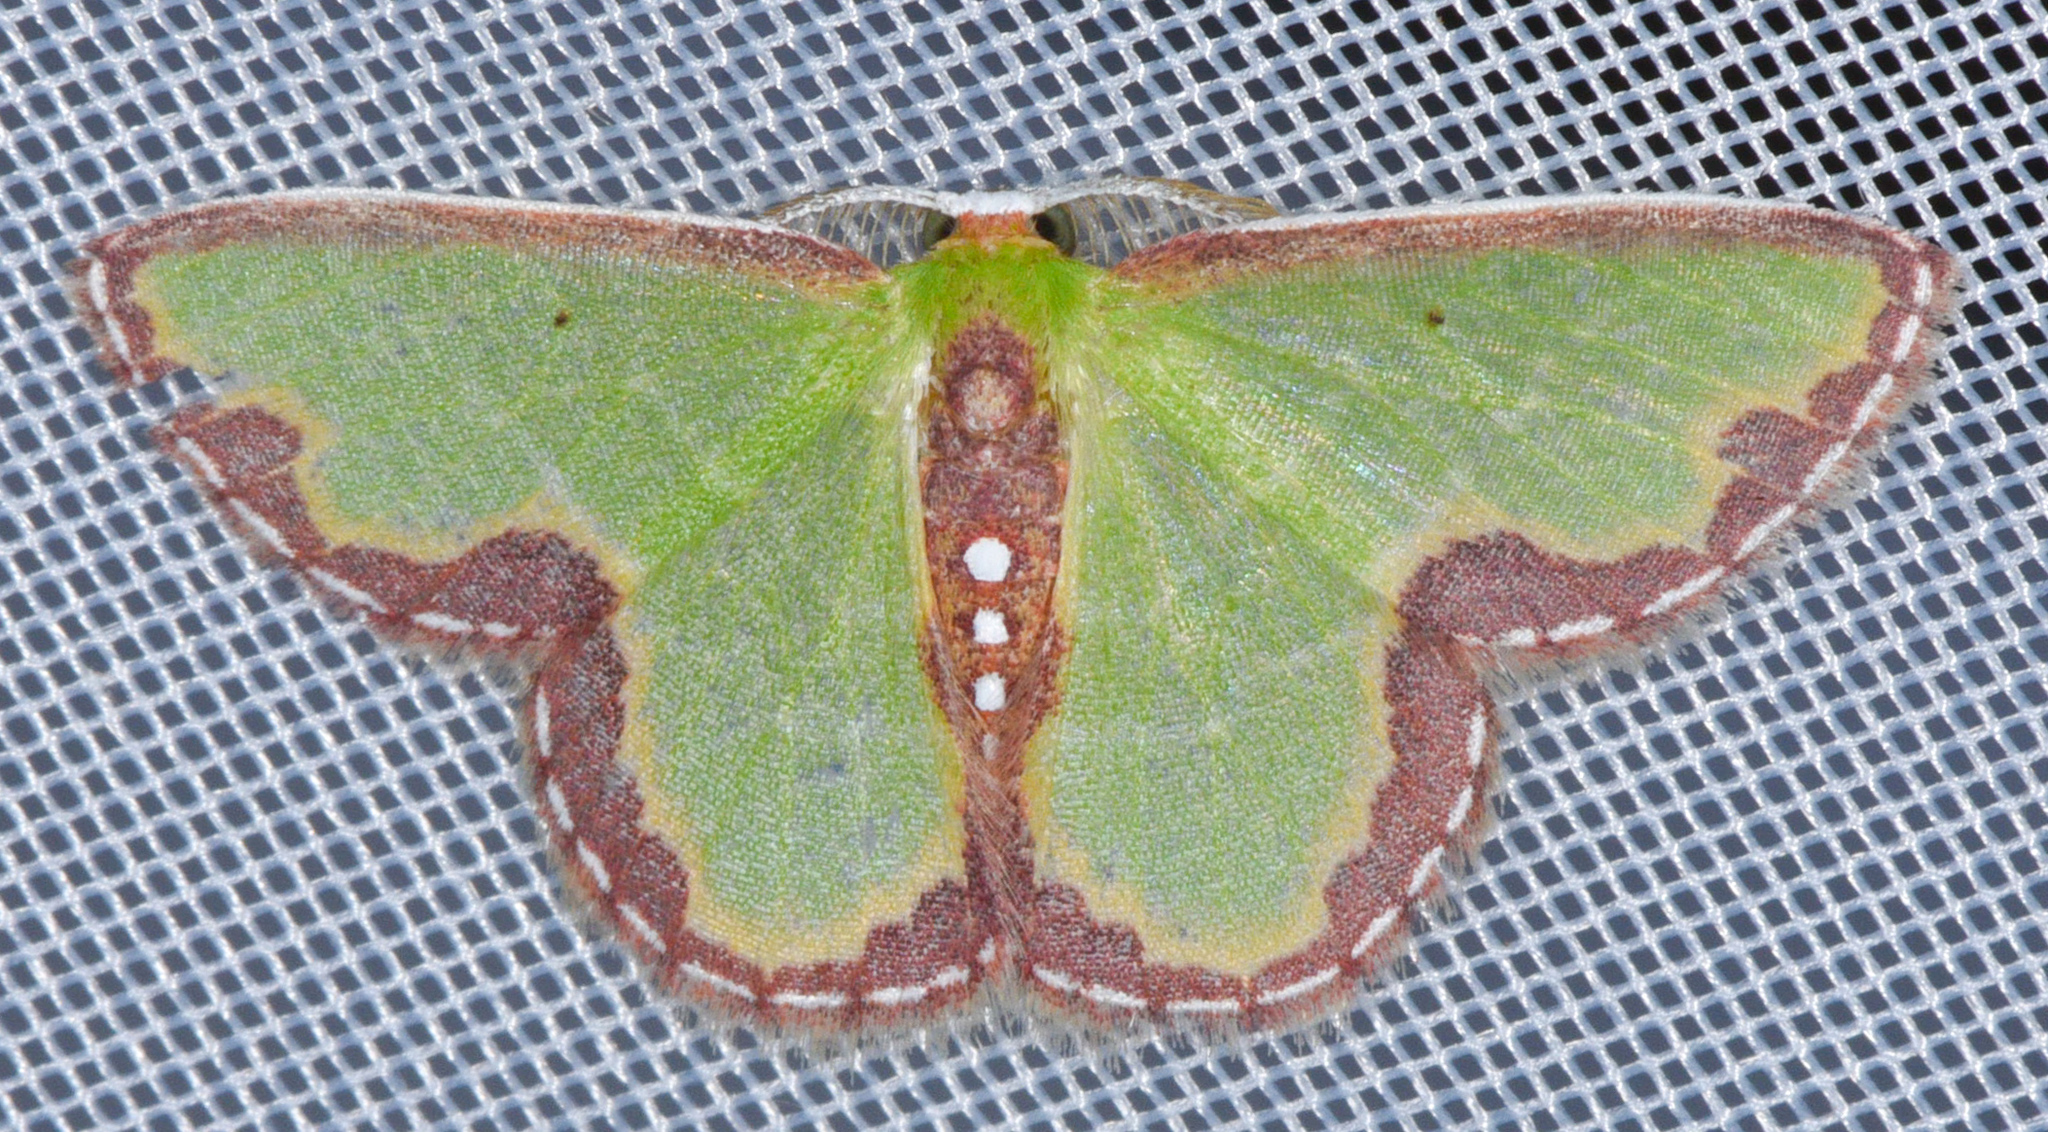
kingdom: Animalia
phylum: Arthropoda
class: Insecta
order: Lepidoptera
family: Geometridae
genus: Synchlora
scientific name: Synchlora expulsata
